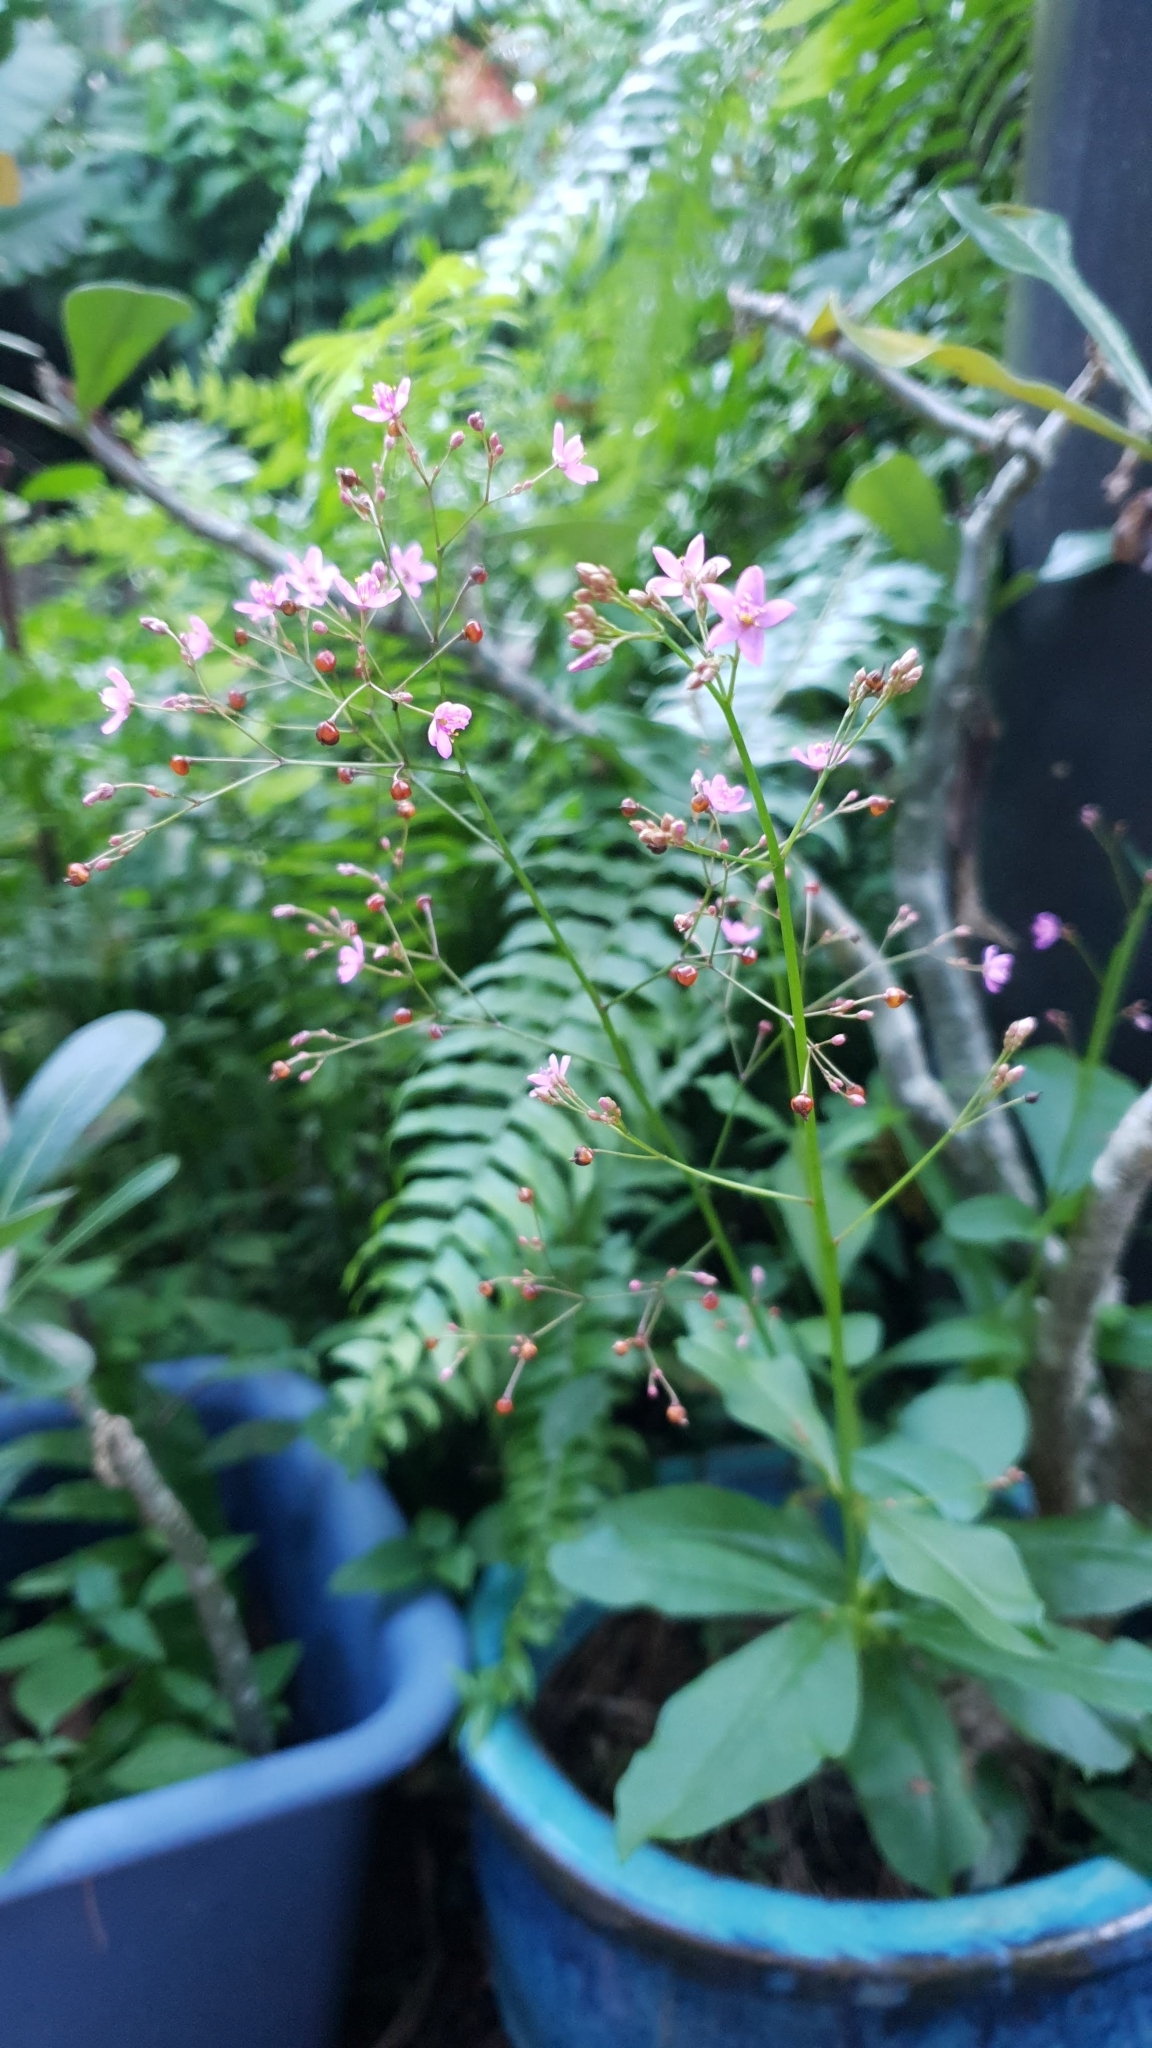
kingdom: Plantae
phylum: Tracheophyta
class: Magnoliopsida
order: Caryophyllales
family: Talinaceae
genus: Talinum
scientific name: Talinum paniculatum
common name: Jewels of opar
